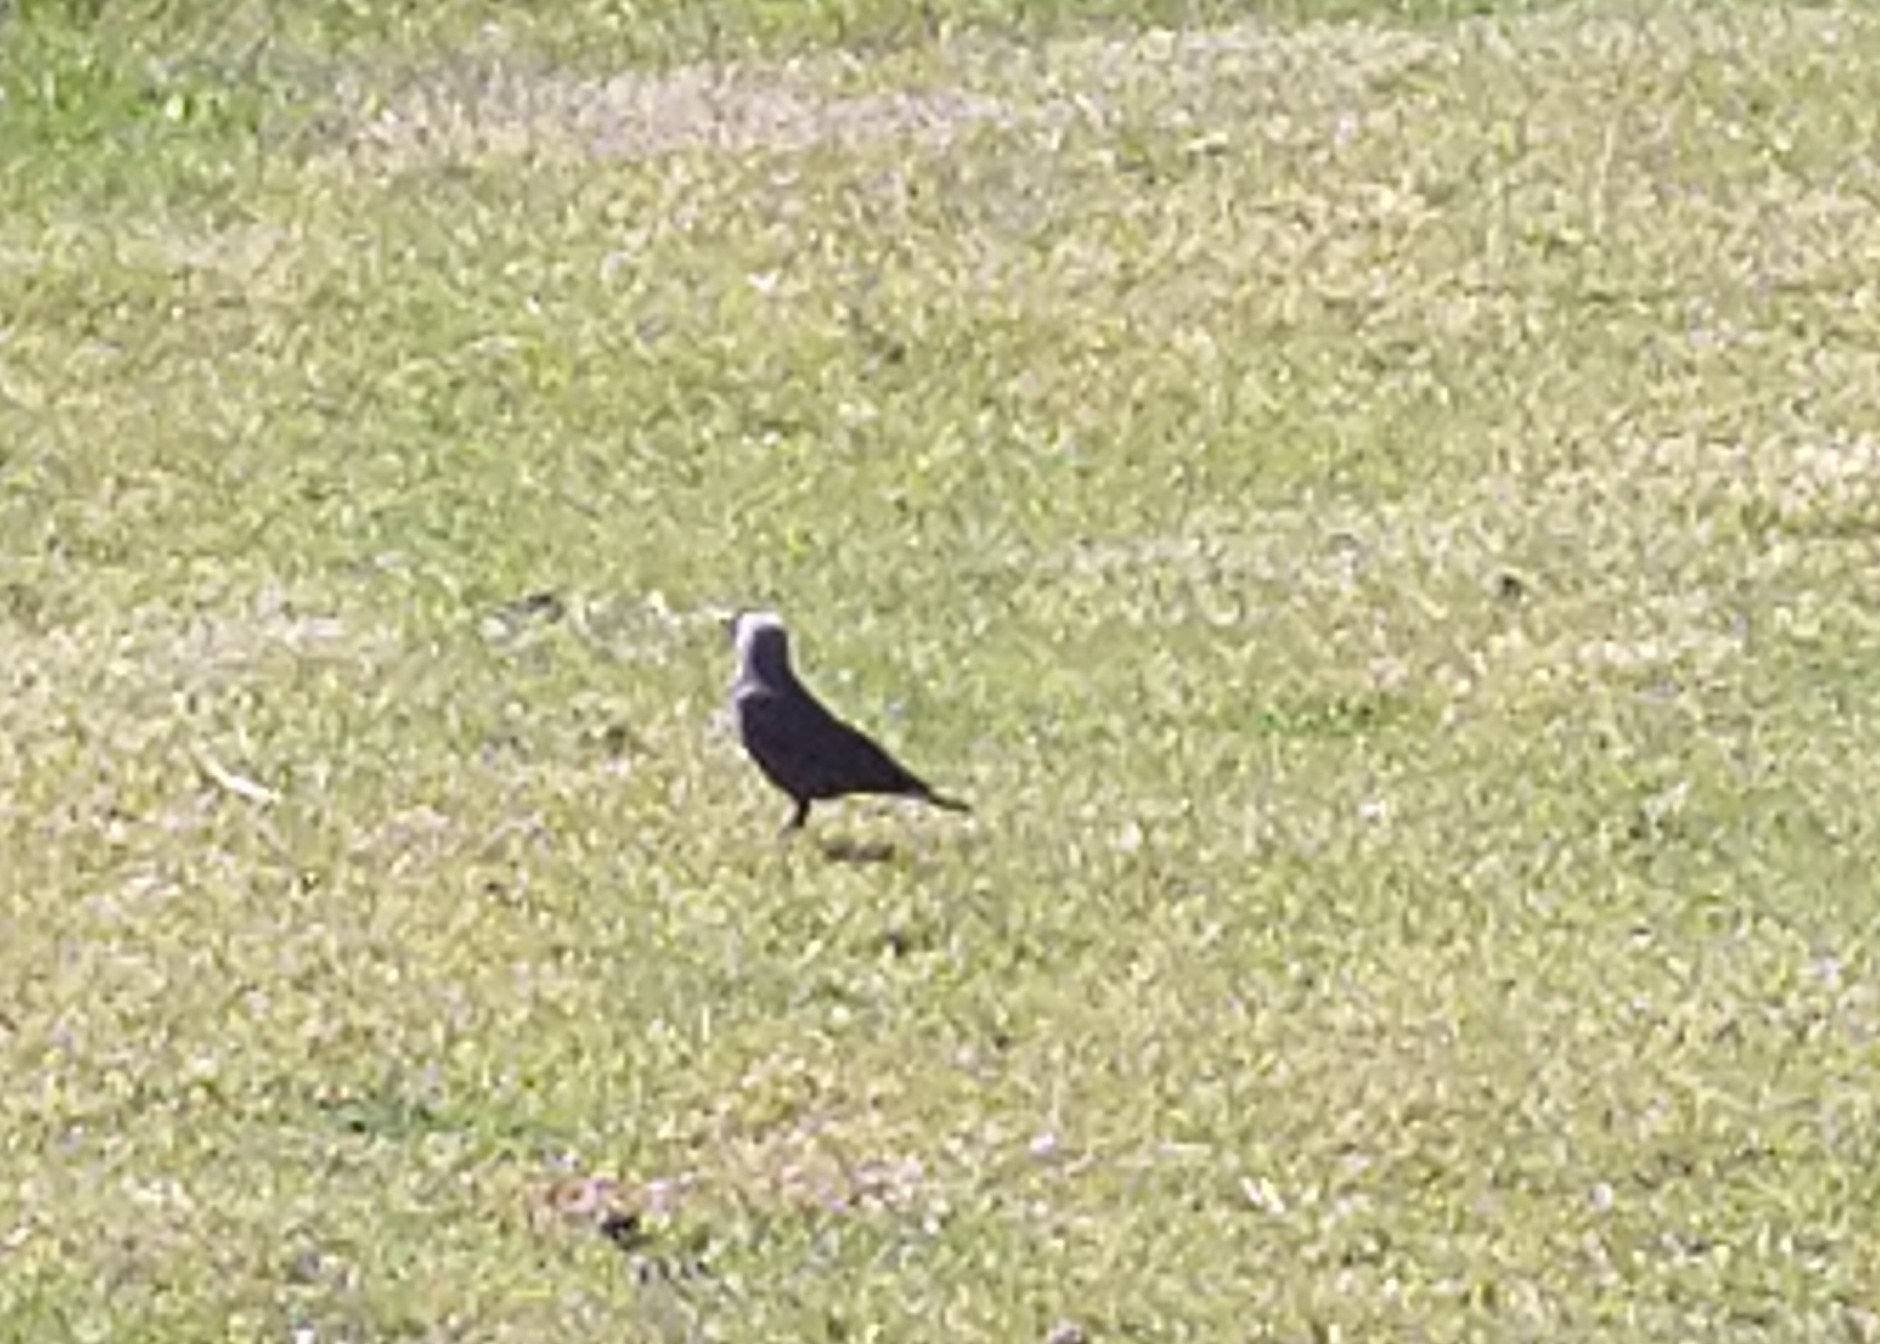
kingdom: Animalia
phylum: Chordata
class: Aves
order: Passeriformes
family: Corvidae
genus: Coloeus
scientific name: Coloeus monedula
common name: Western jackdaw
